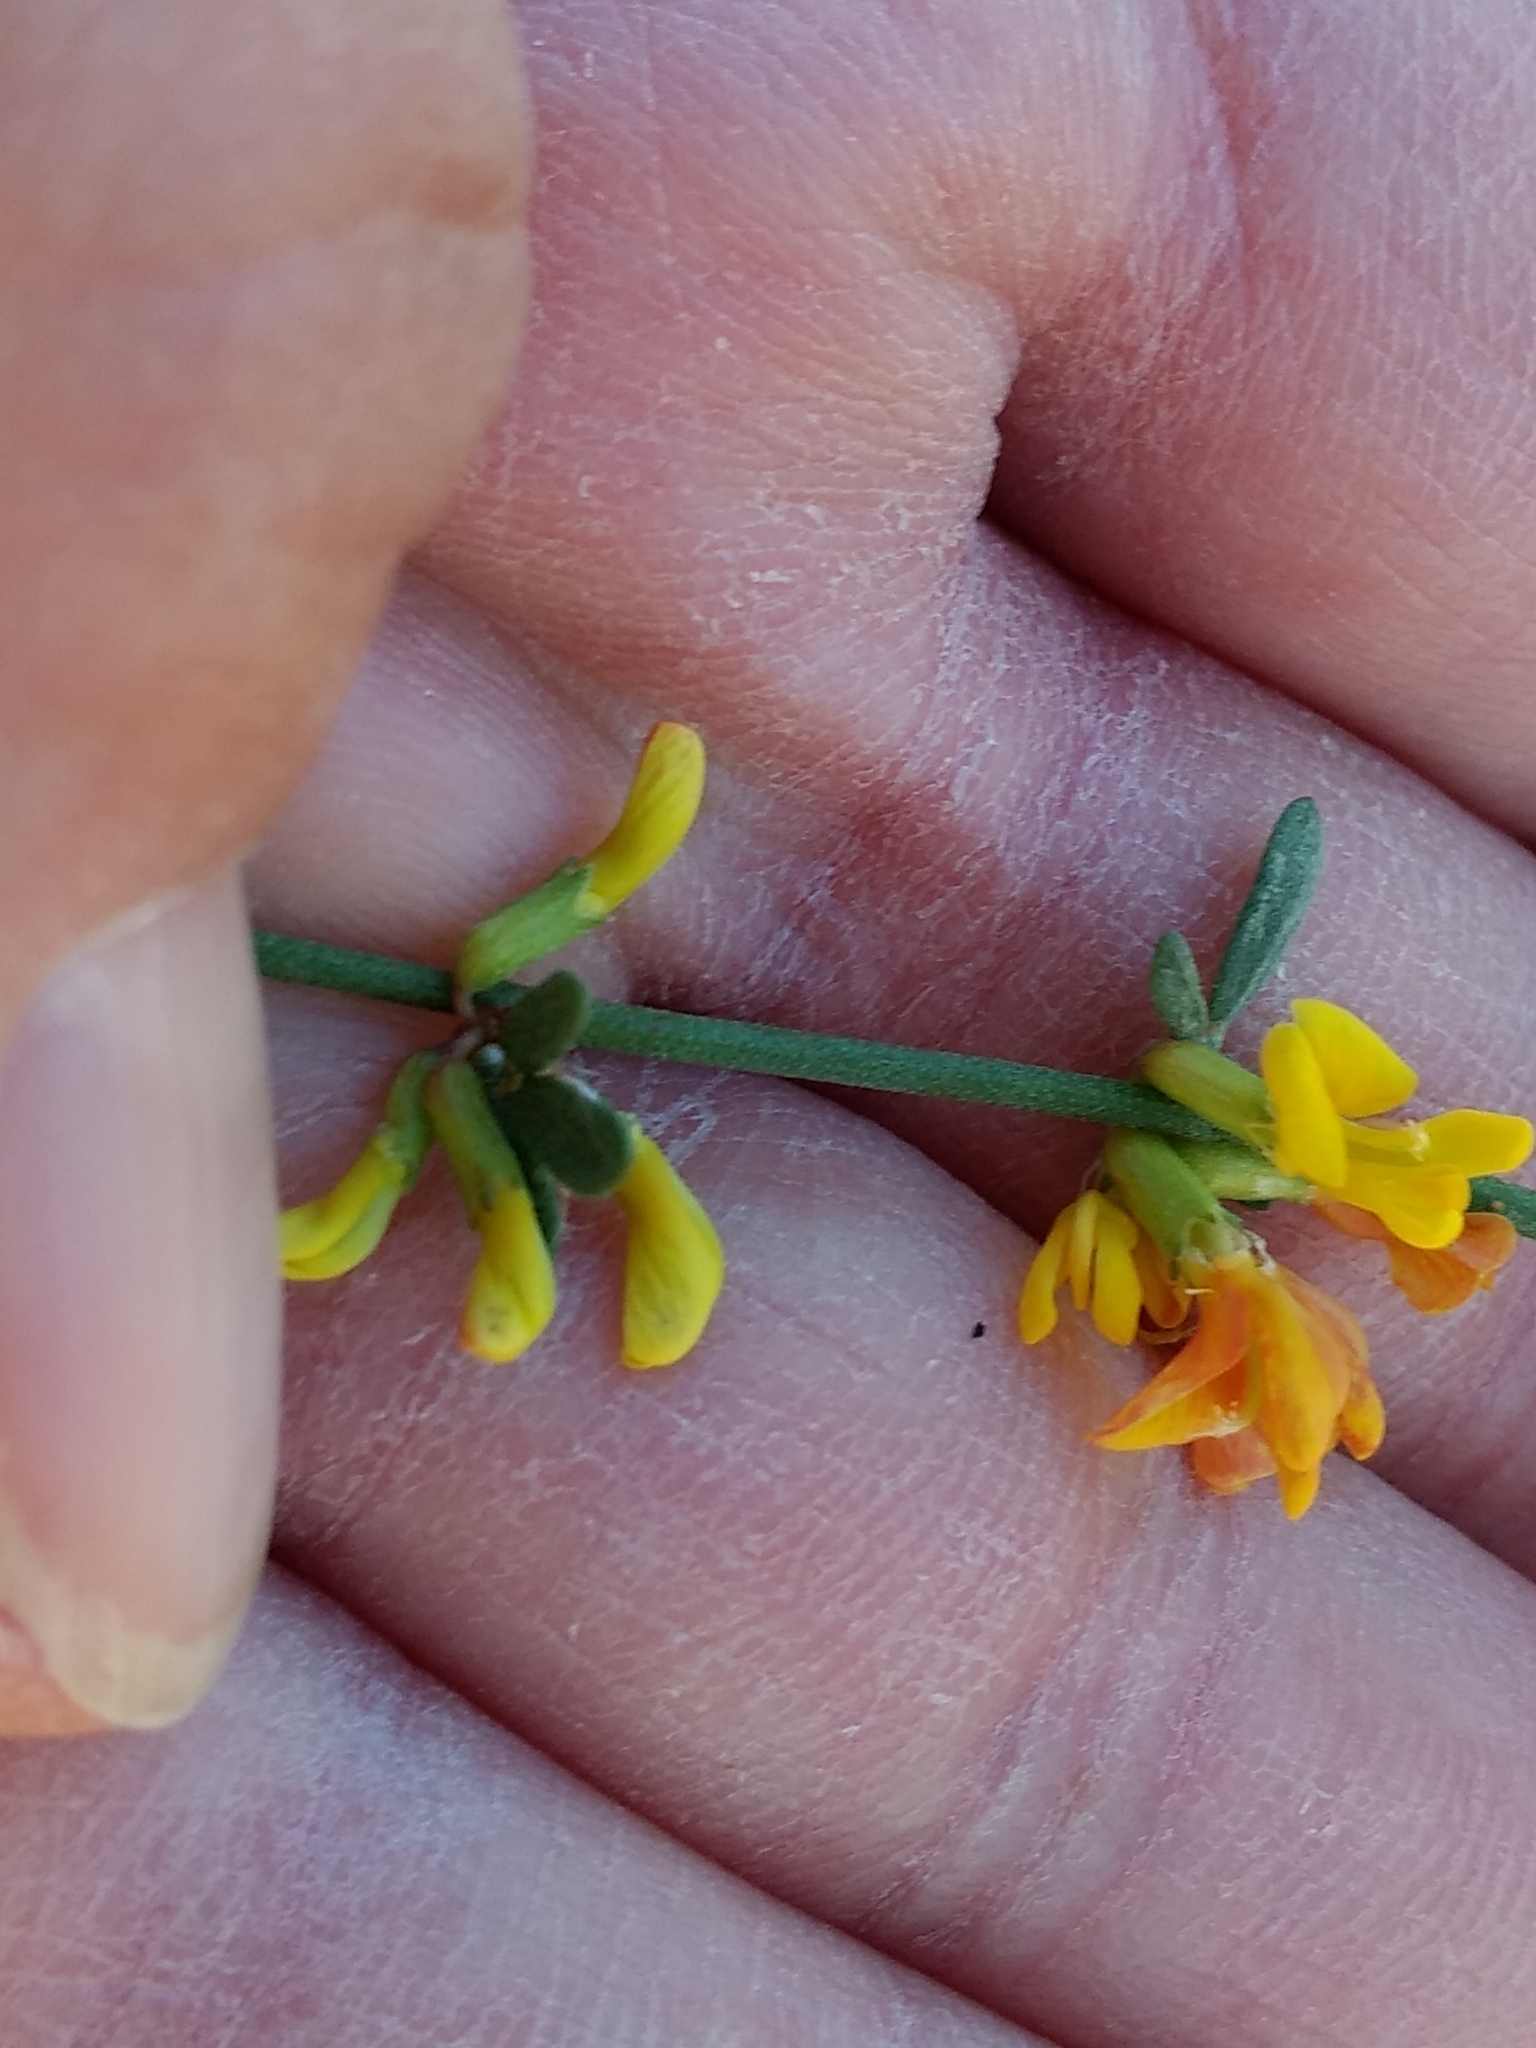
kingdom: Plantae
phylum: Tracheophyta
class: Magnoliopsida
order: Fabales
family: Fabaceae
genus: Acmispon
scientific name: Acmispon glaber
